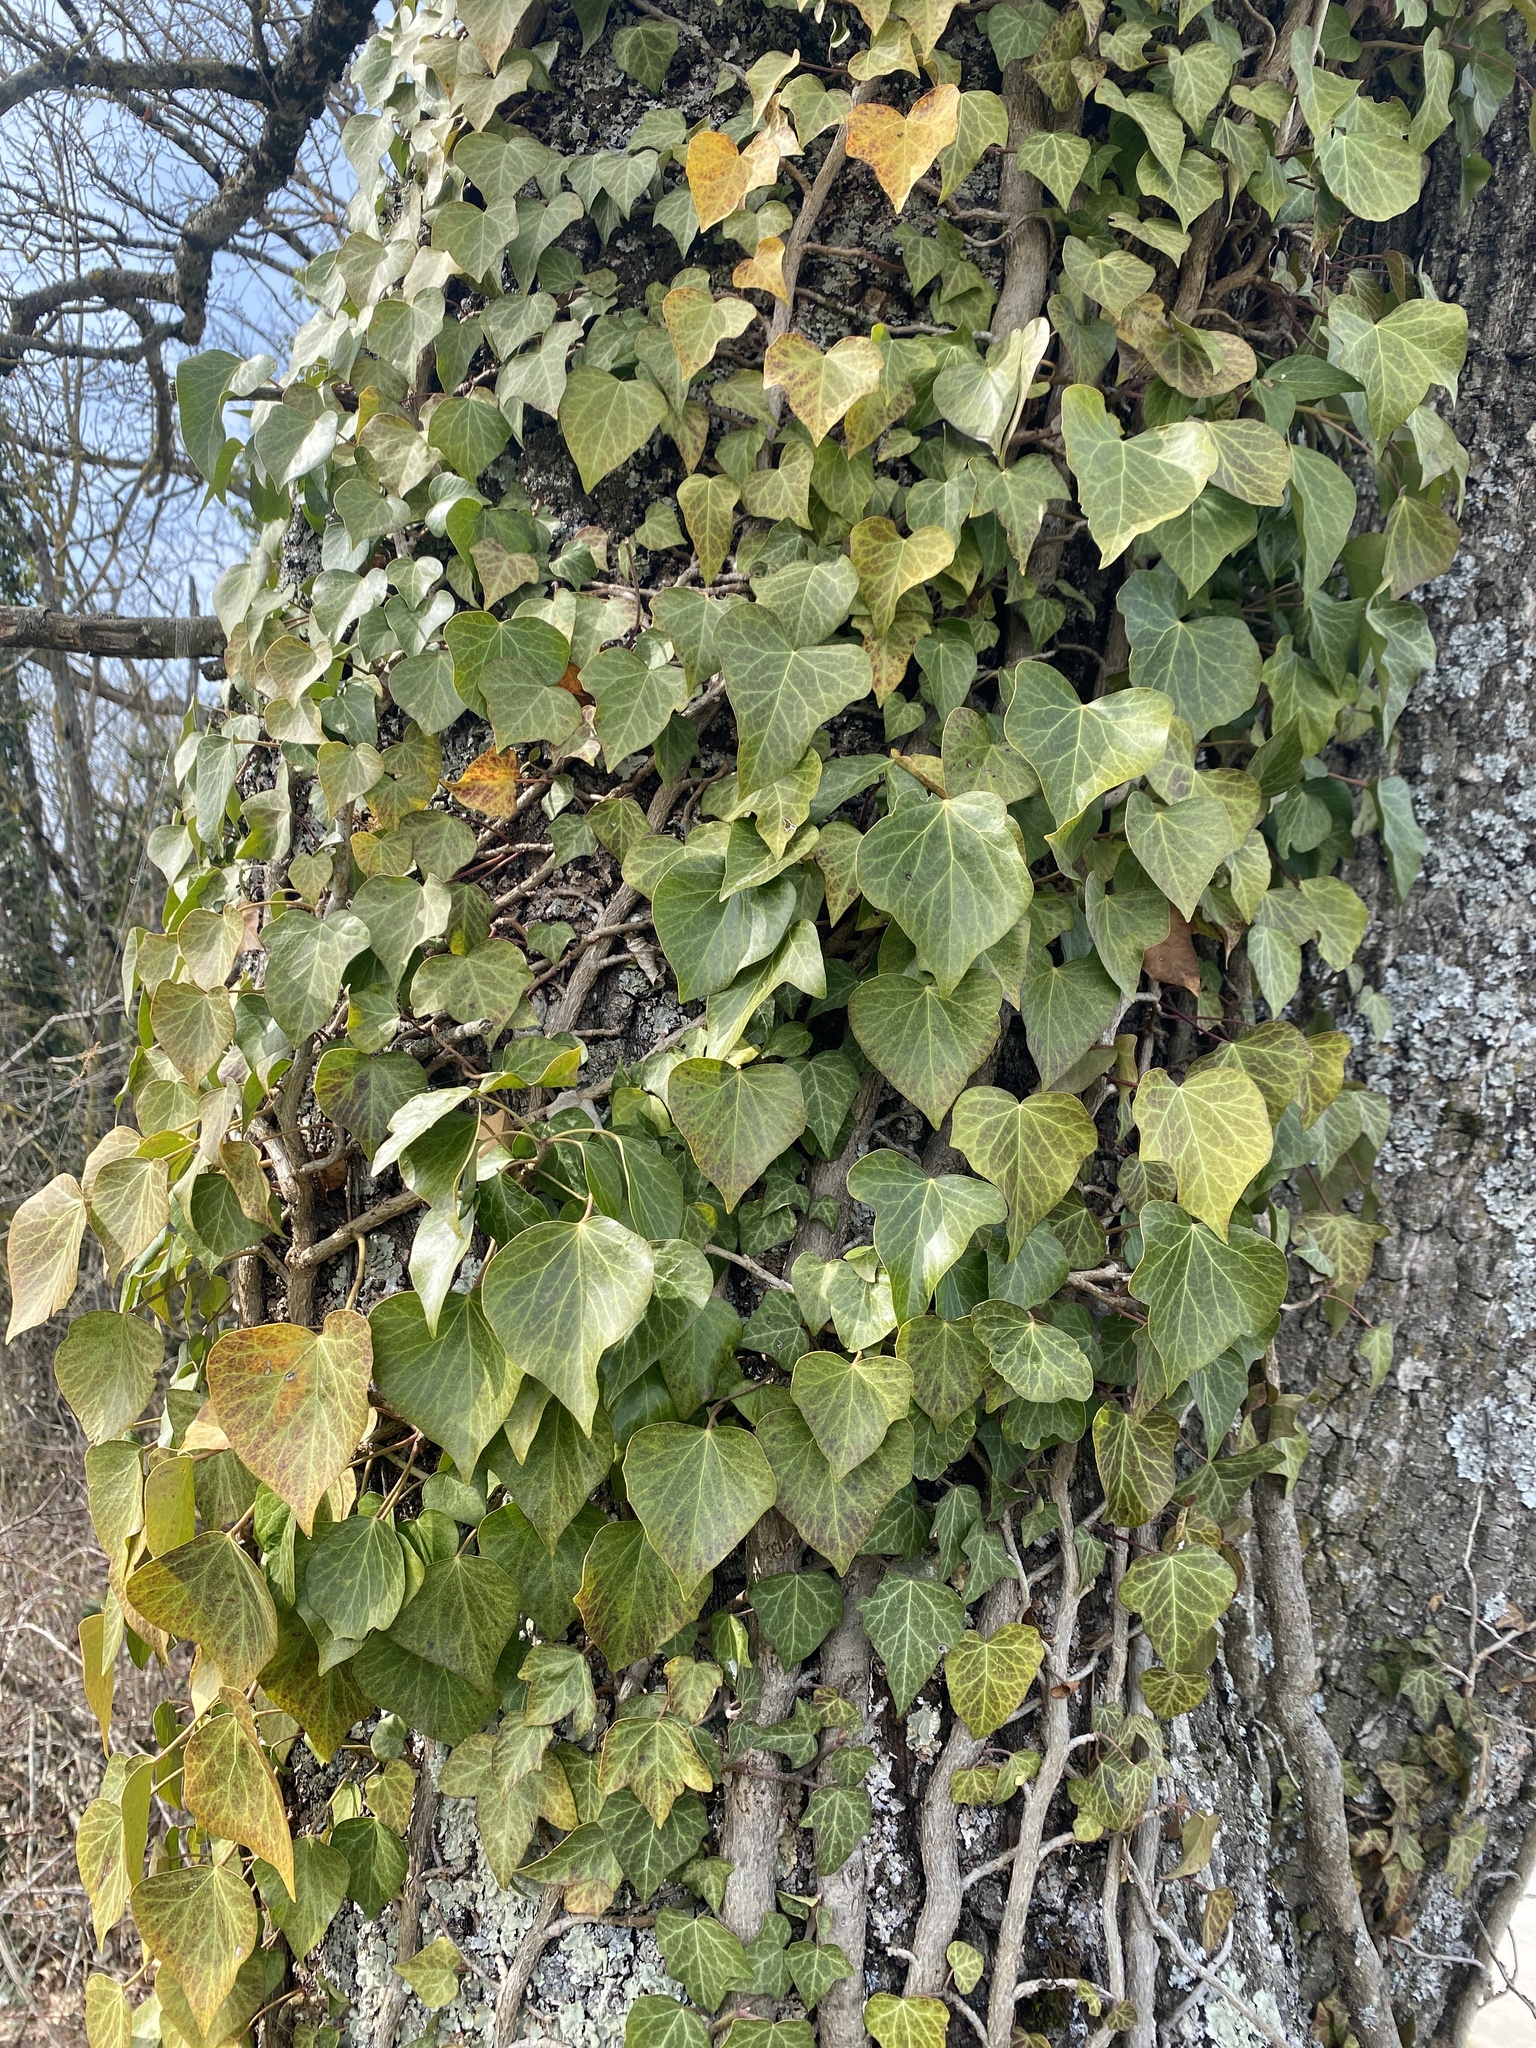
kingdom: Plantae
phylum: Tracheophyta
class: Magnoliopsida
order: Apiales
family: Araliaceae
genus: Hedera
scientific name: Hedera helix
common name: Ivy
